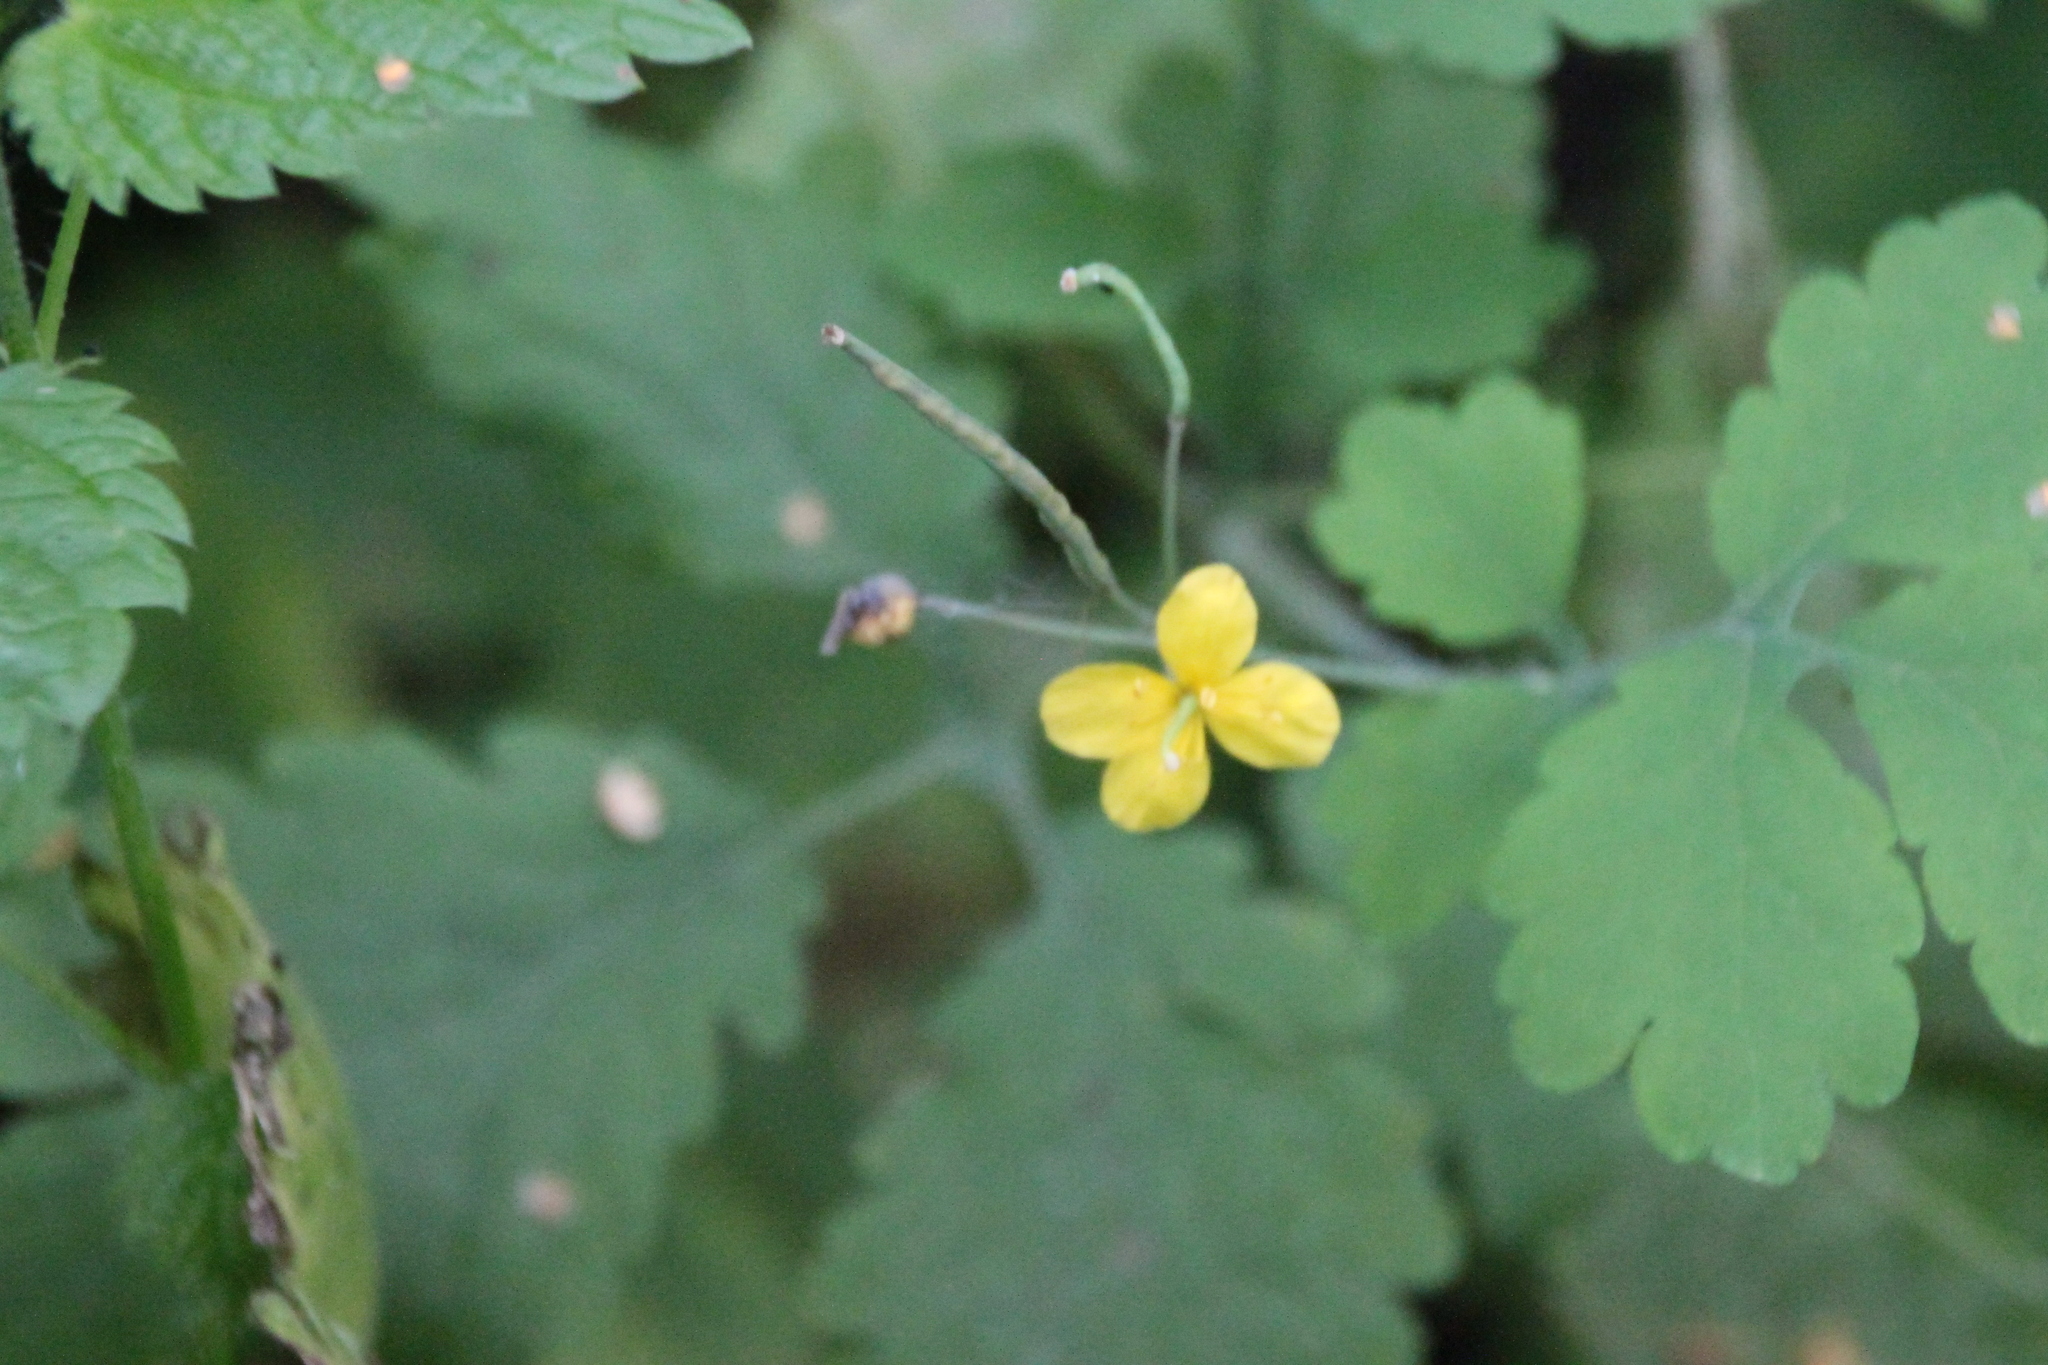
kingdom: Plantae
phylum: Tracheophyta
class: Magnoliopsida
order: Ranunculales
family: Papaveraceae
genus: Chelidonium
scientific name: Chelidonium majus
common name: Greater celandine
